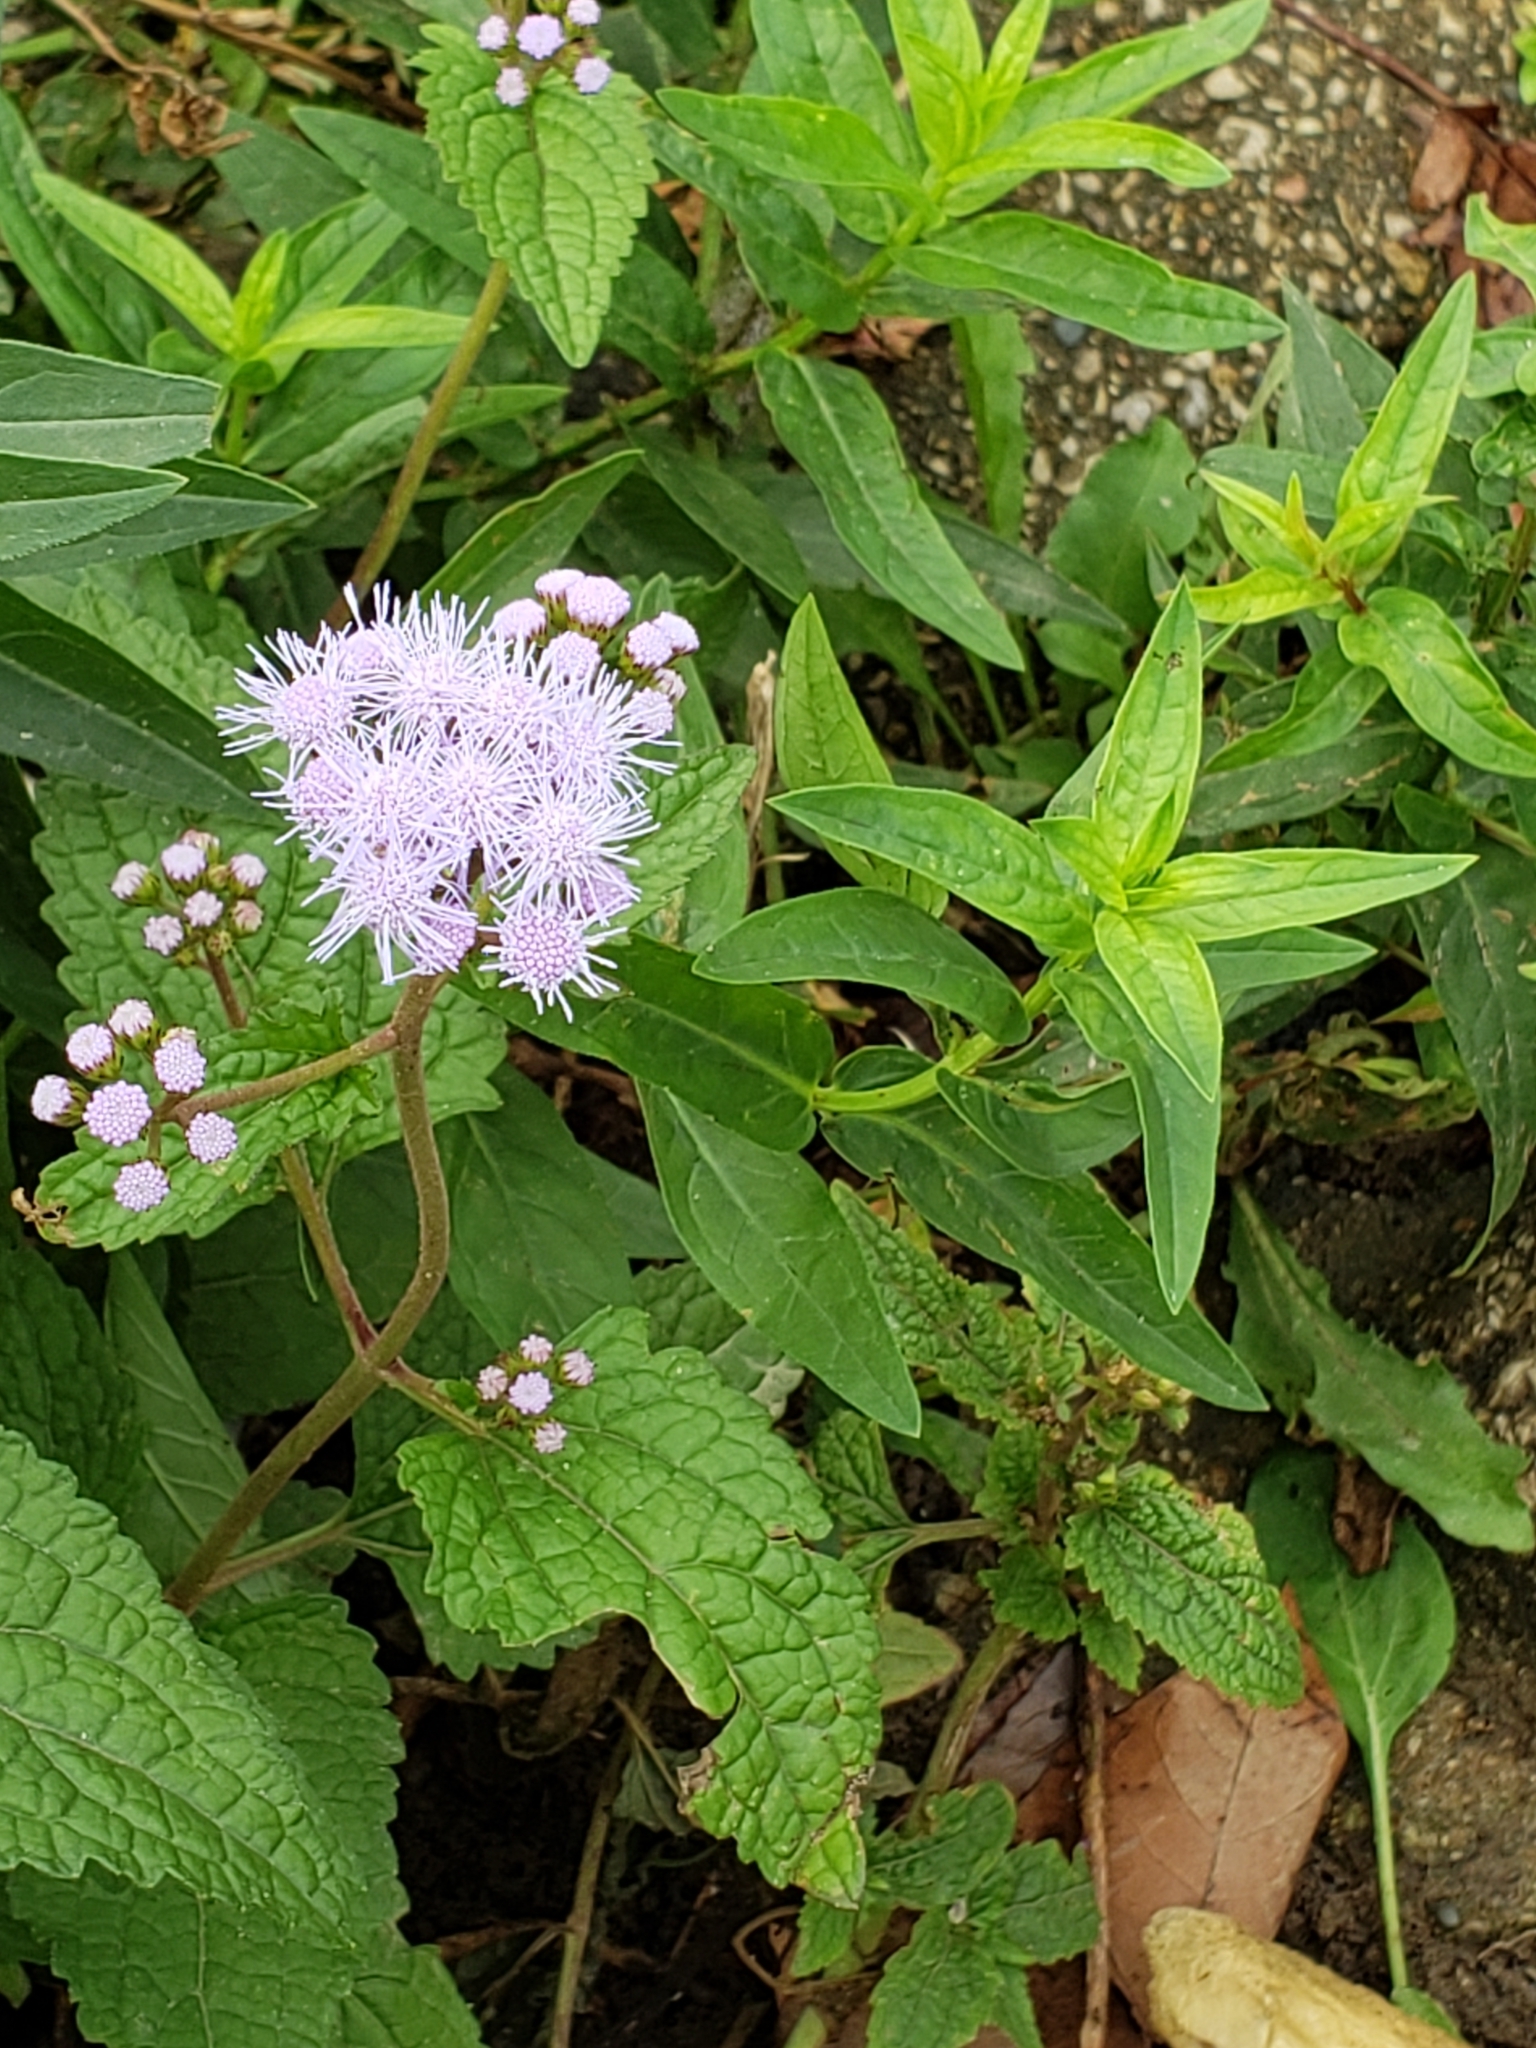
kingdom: Plantae
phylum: Tracheophyta
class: Magnoliopsida
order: Asterales
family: Asteraceae
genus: Conoclinium
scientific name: Conoclinium coelestinum
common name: Blue mistflower
